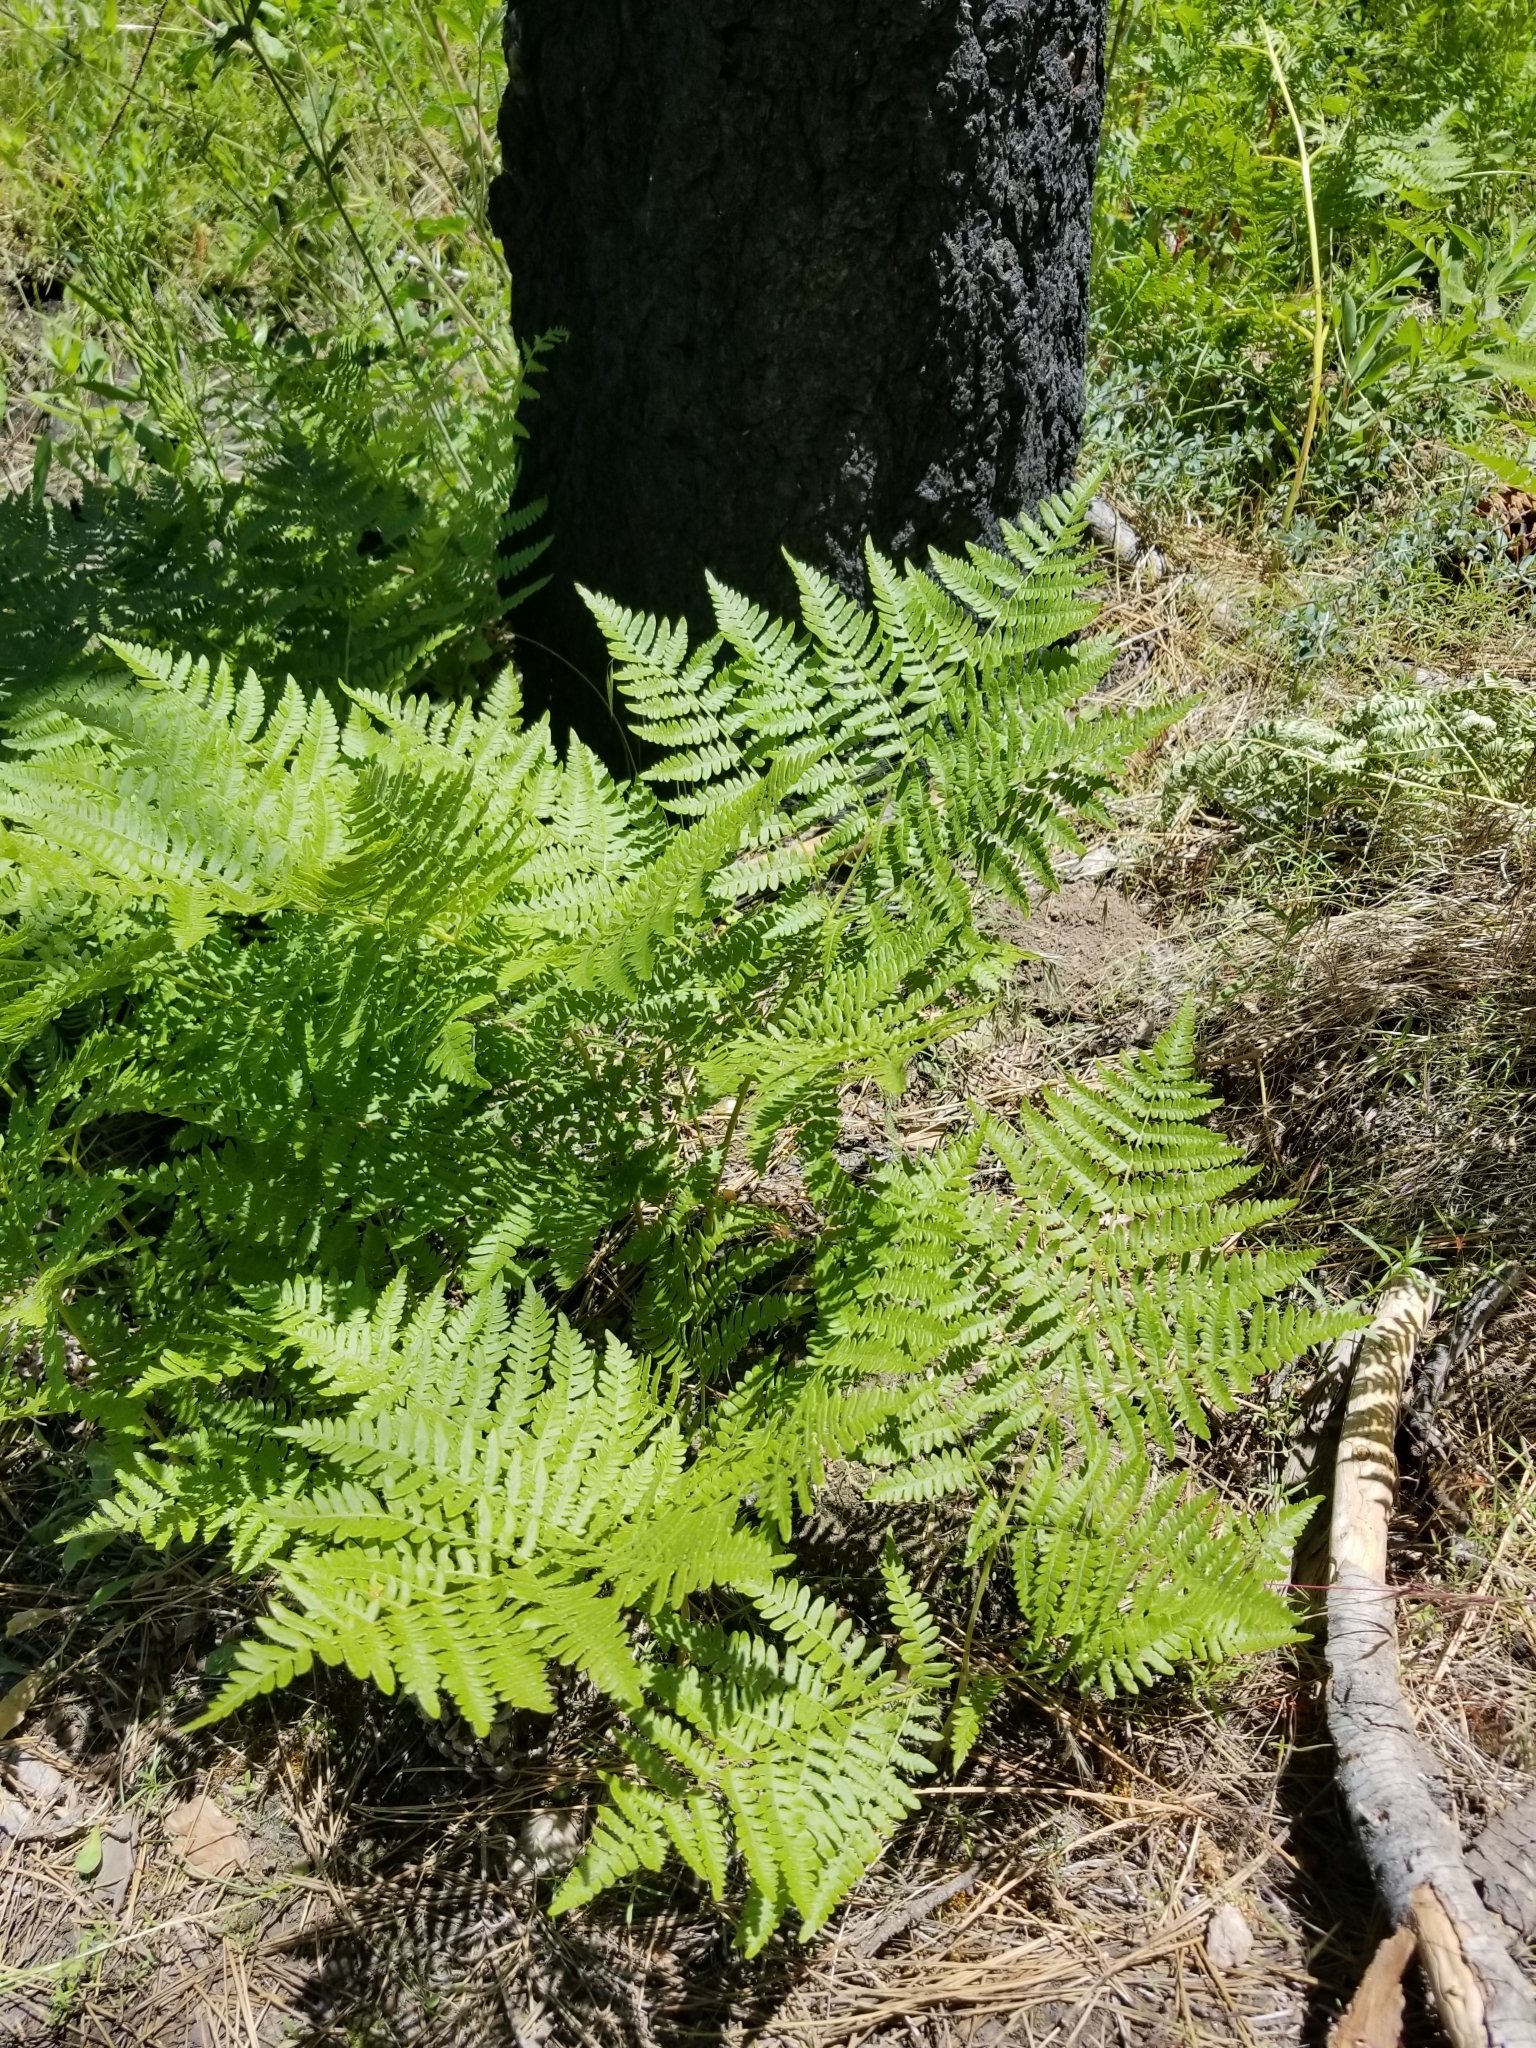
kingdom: Plantae
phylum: Tracheophyta
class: Polypodiopsida
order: Polypodiales
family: Dennstaedtiaceae
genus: Pteridium
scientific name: Pteridium aquilinum
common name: Bracken
